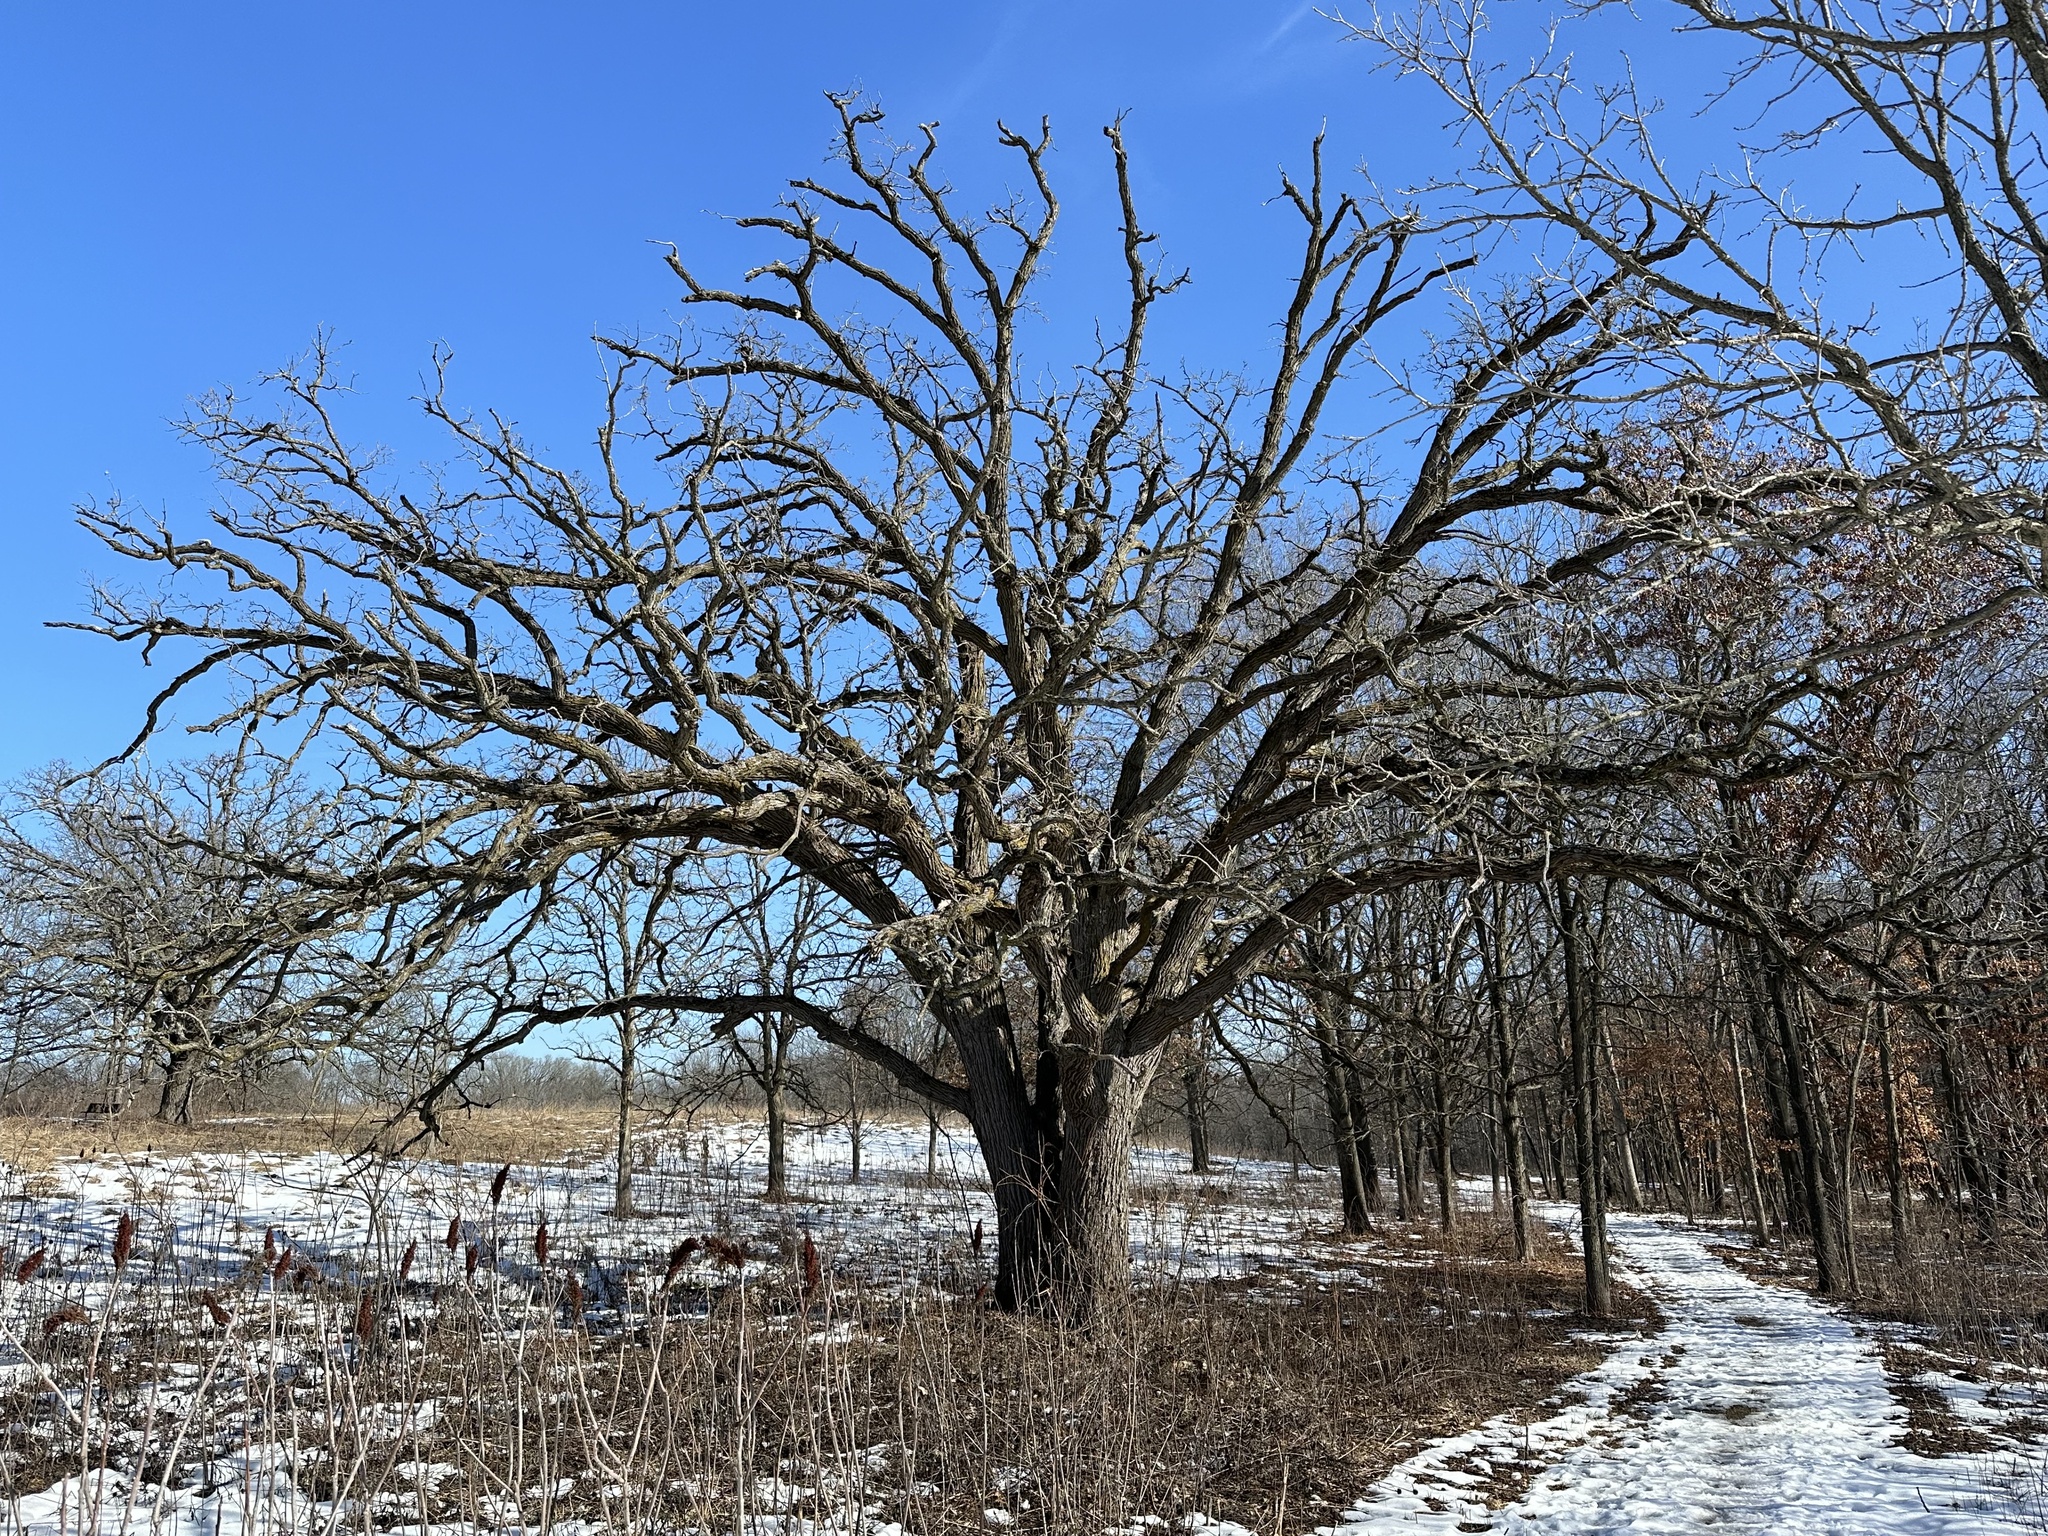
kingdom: Plantae
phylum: Tracheophyta
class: Magnoliopsida
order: Fagales
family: Fagaceae
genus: Quercus
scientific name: Quercus macrocarpa
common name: Bur oak
